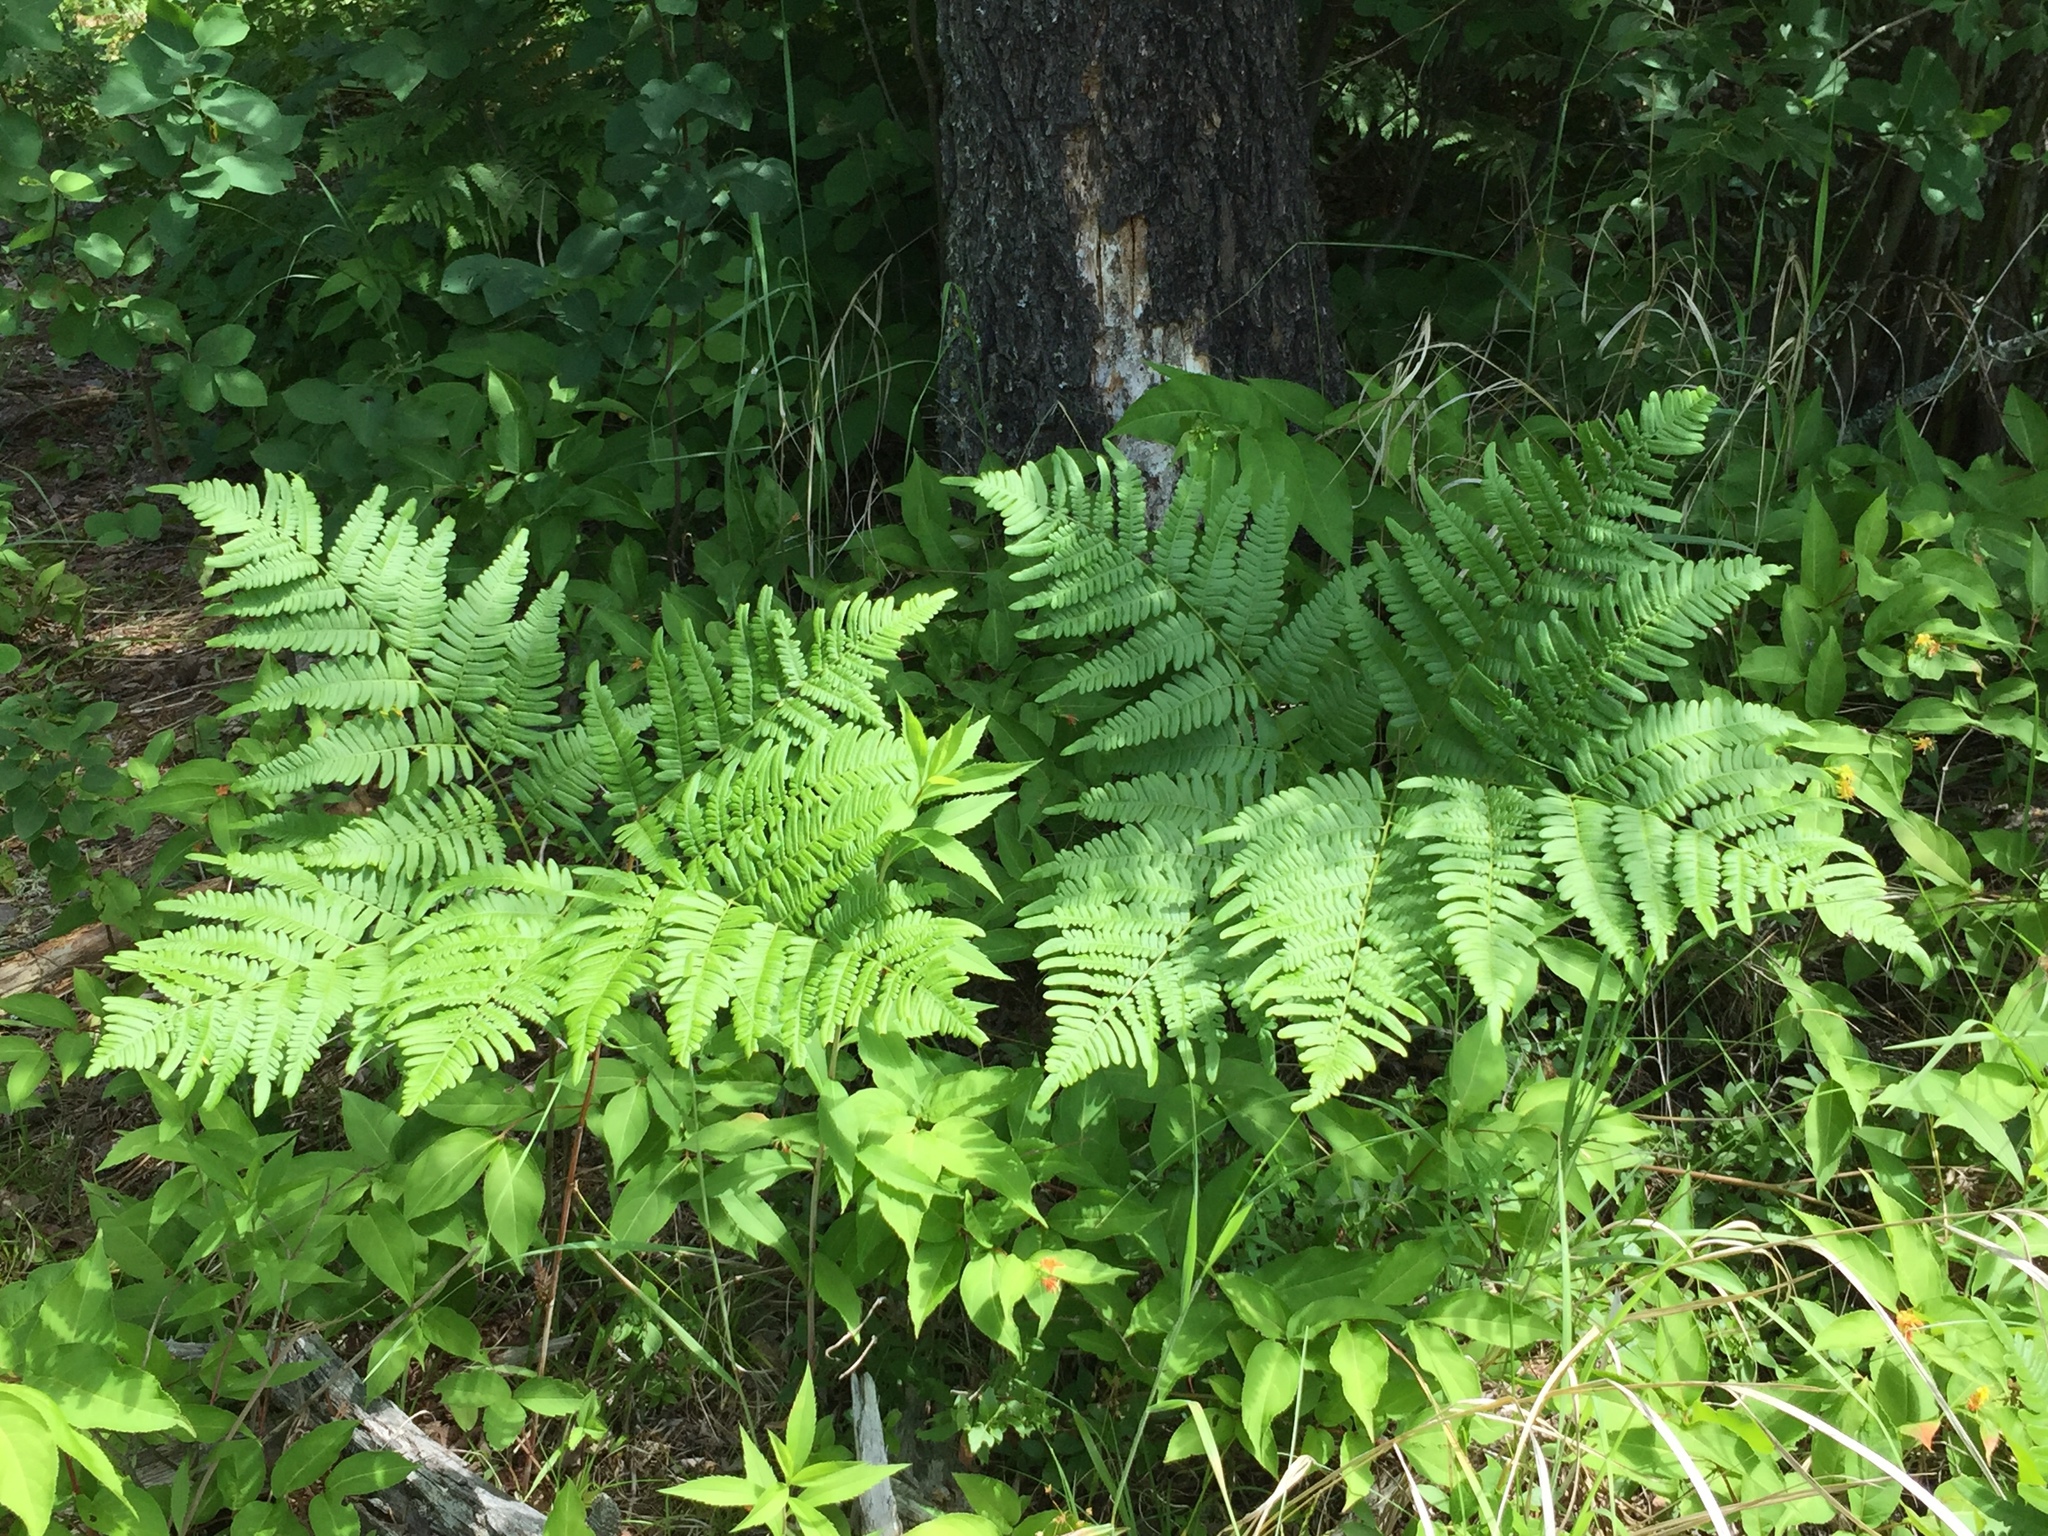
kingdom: Plantae
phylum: Tracheophyta
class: Polypodiopsida
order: Polypodiales
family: Dennstaedtiaceae
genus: Pteridium
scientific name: Pteridium aquilinum
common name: Bracken
